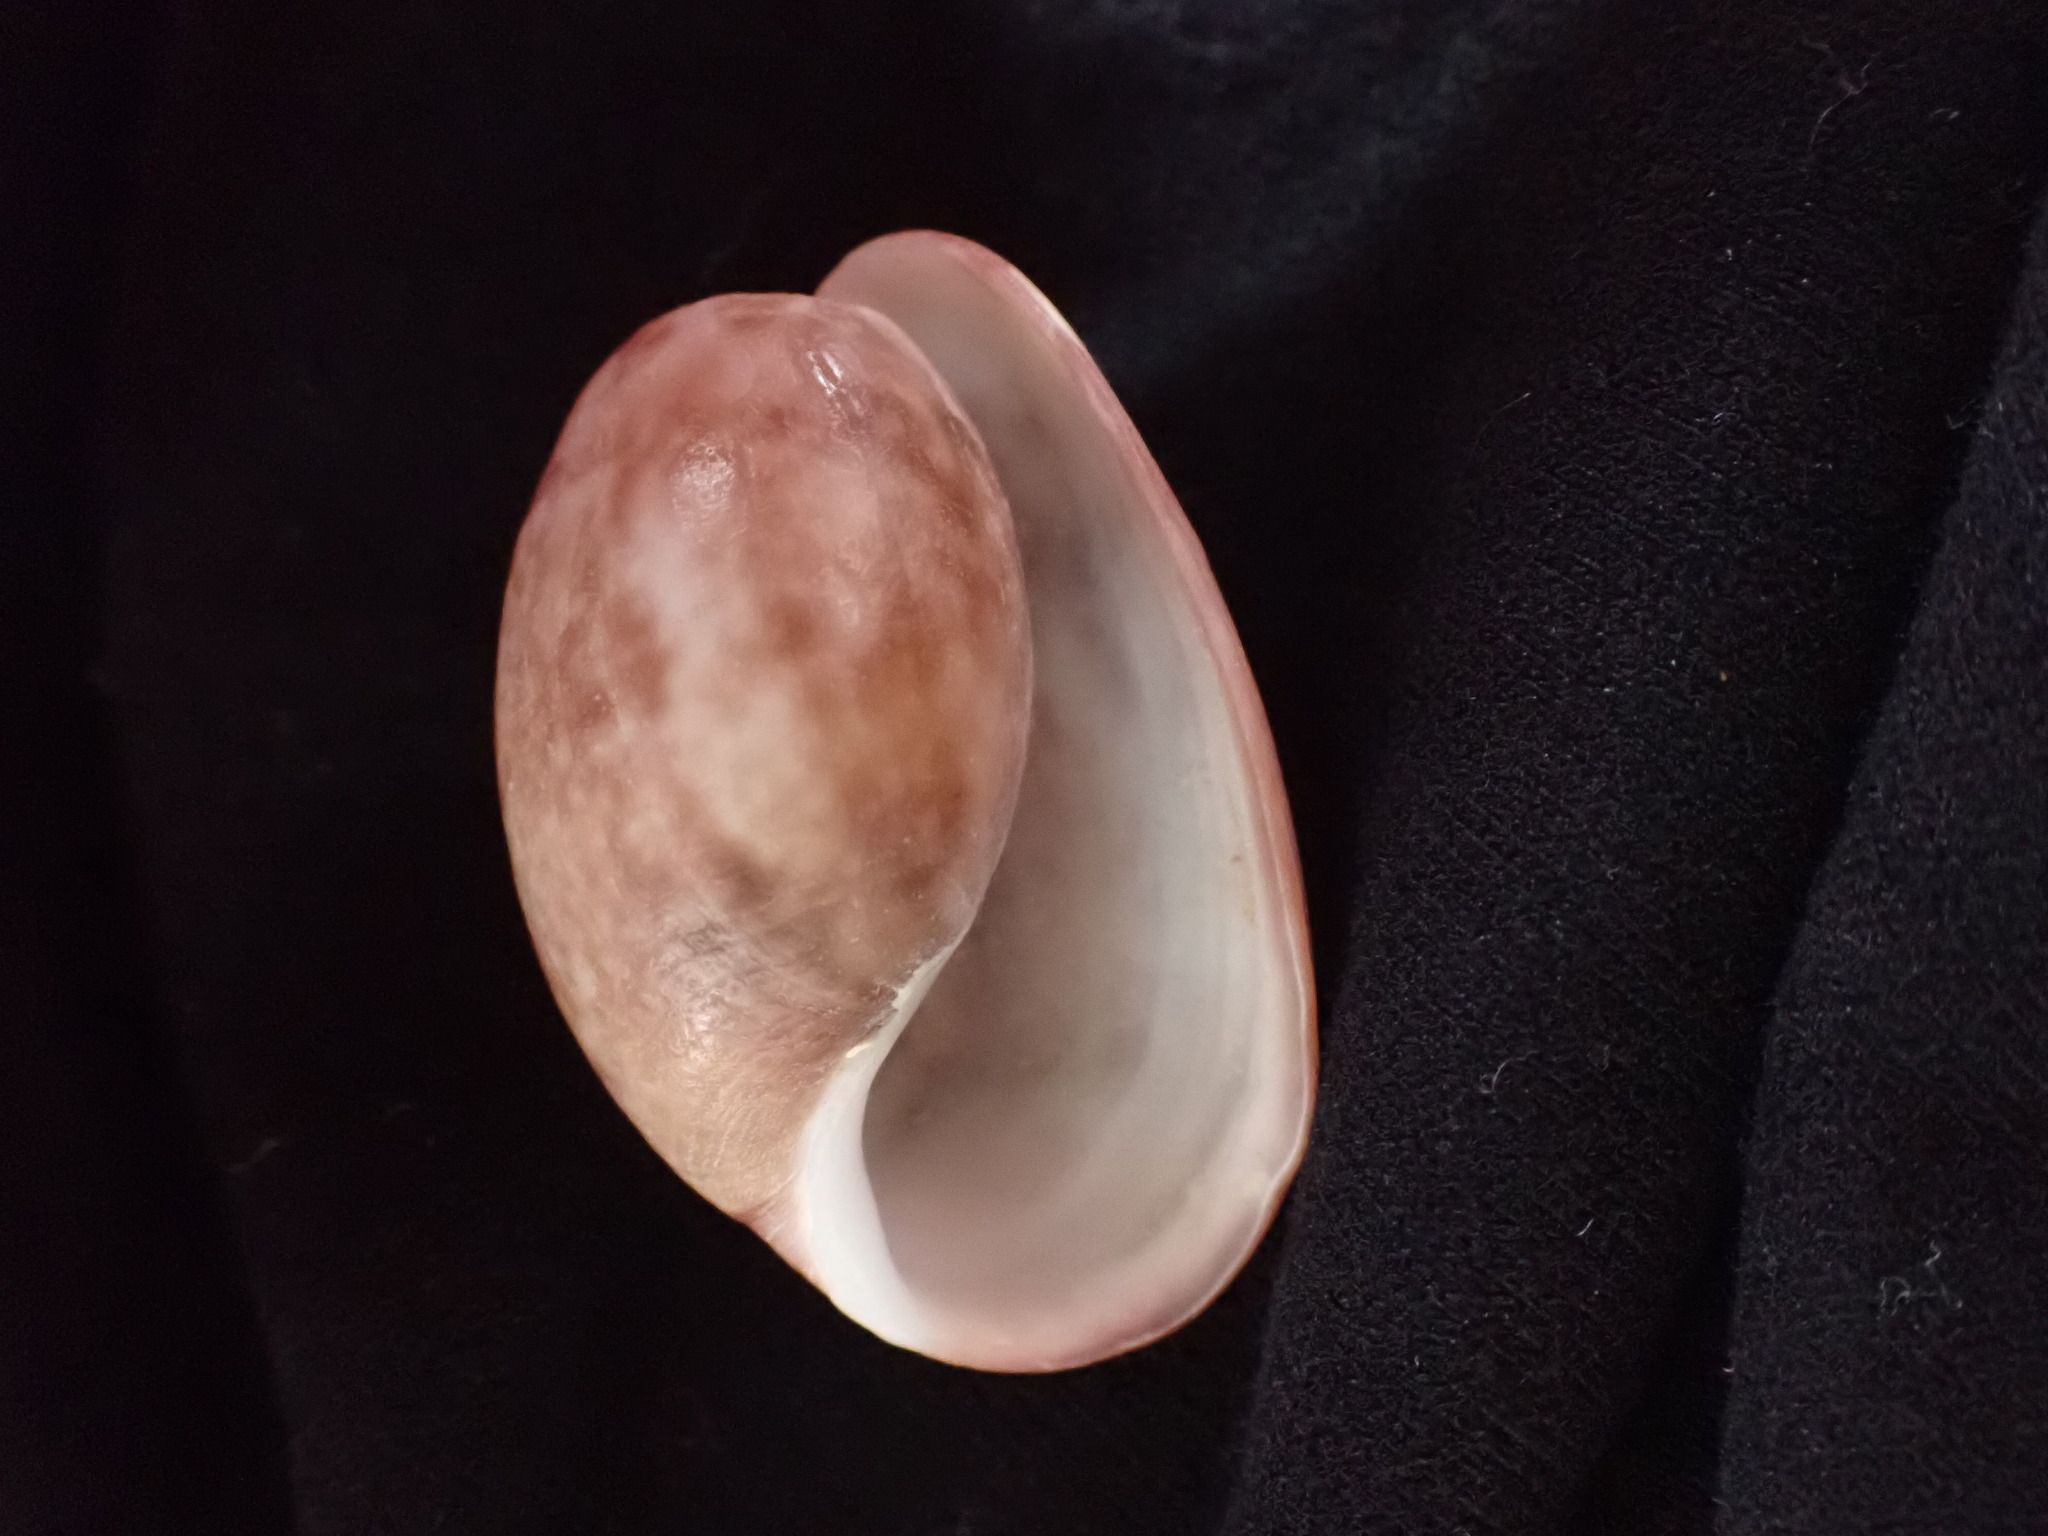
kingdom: Animalia
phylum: Mollusca
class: Gastropoda
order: Cephalaspidea
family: Bullidae
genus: Bulla
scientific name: Bulla quoyii
